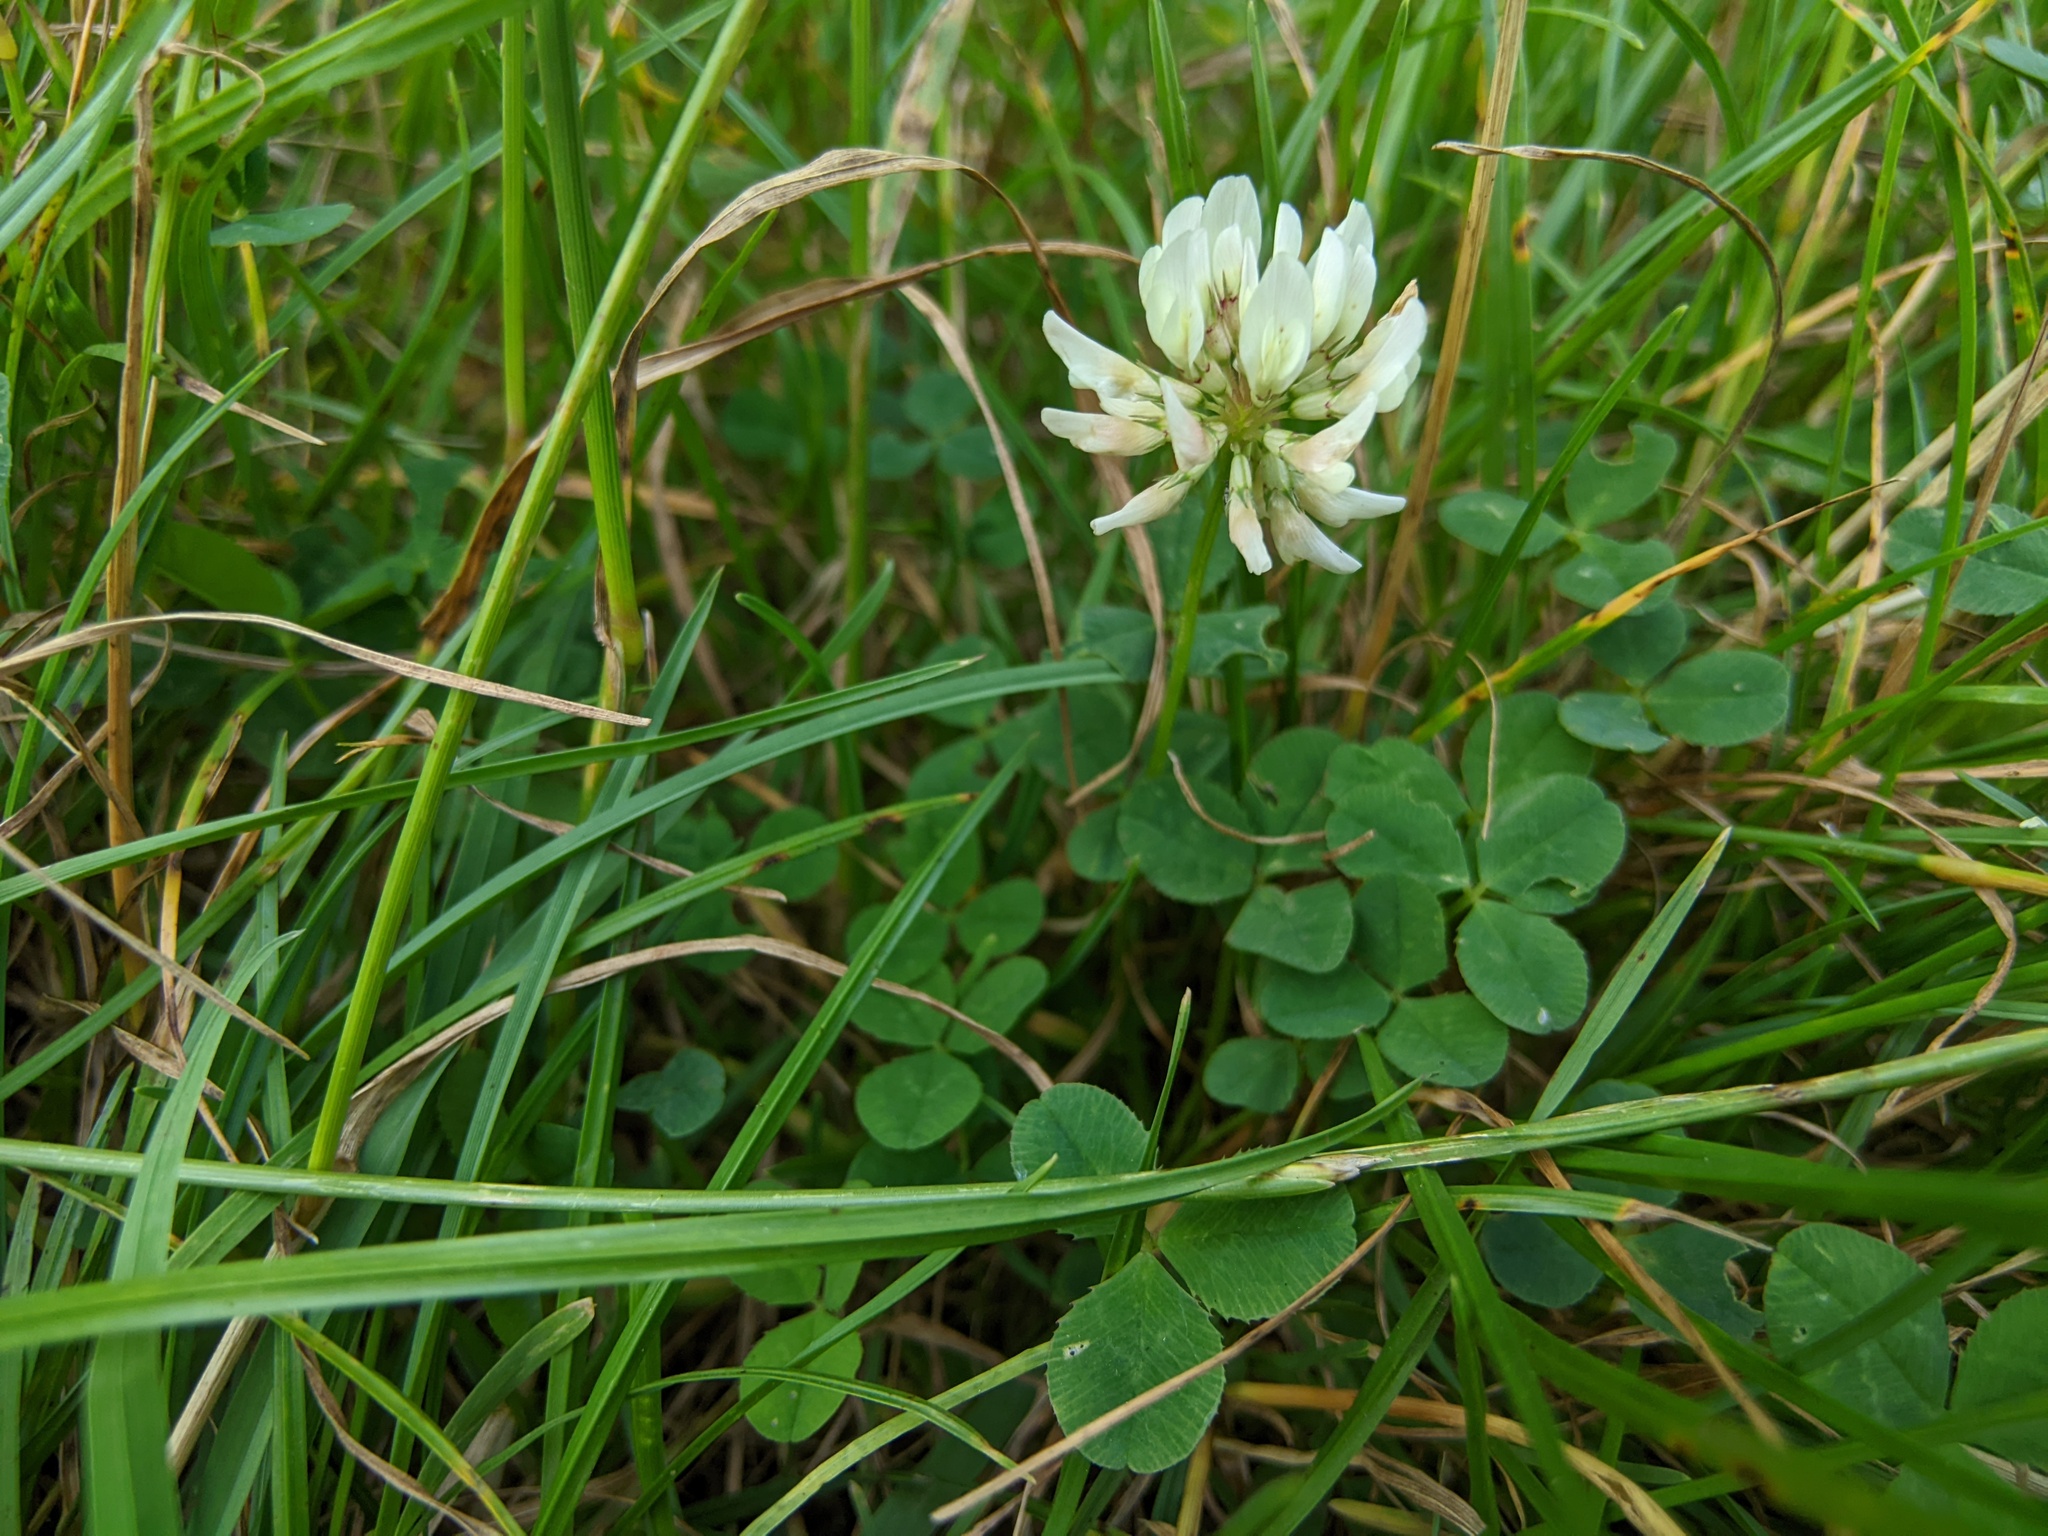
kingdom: Plantae
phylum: Tracheophyta
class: Magnoliopsida
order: Fabales
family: Fabaceae
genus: Trifolium
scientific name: Trifolium repens
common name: White clover
